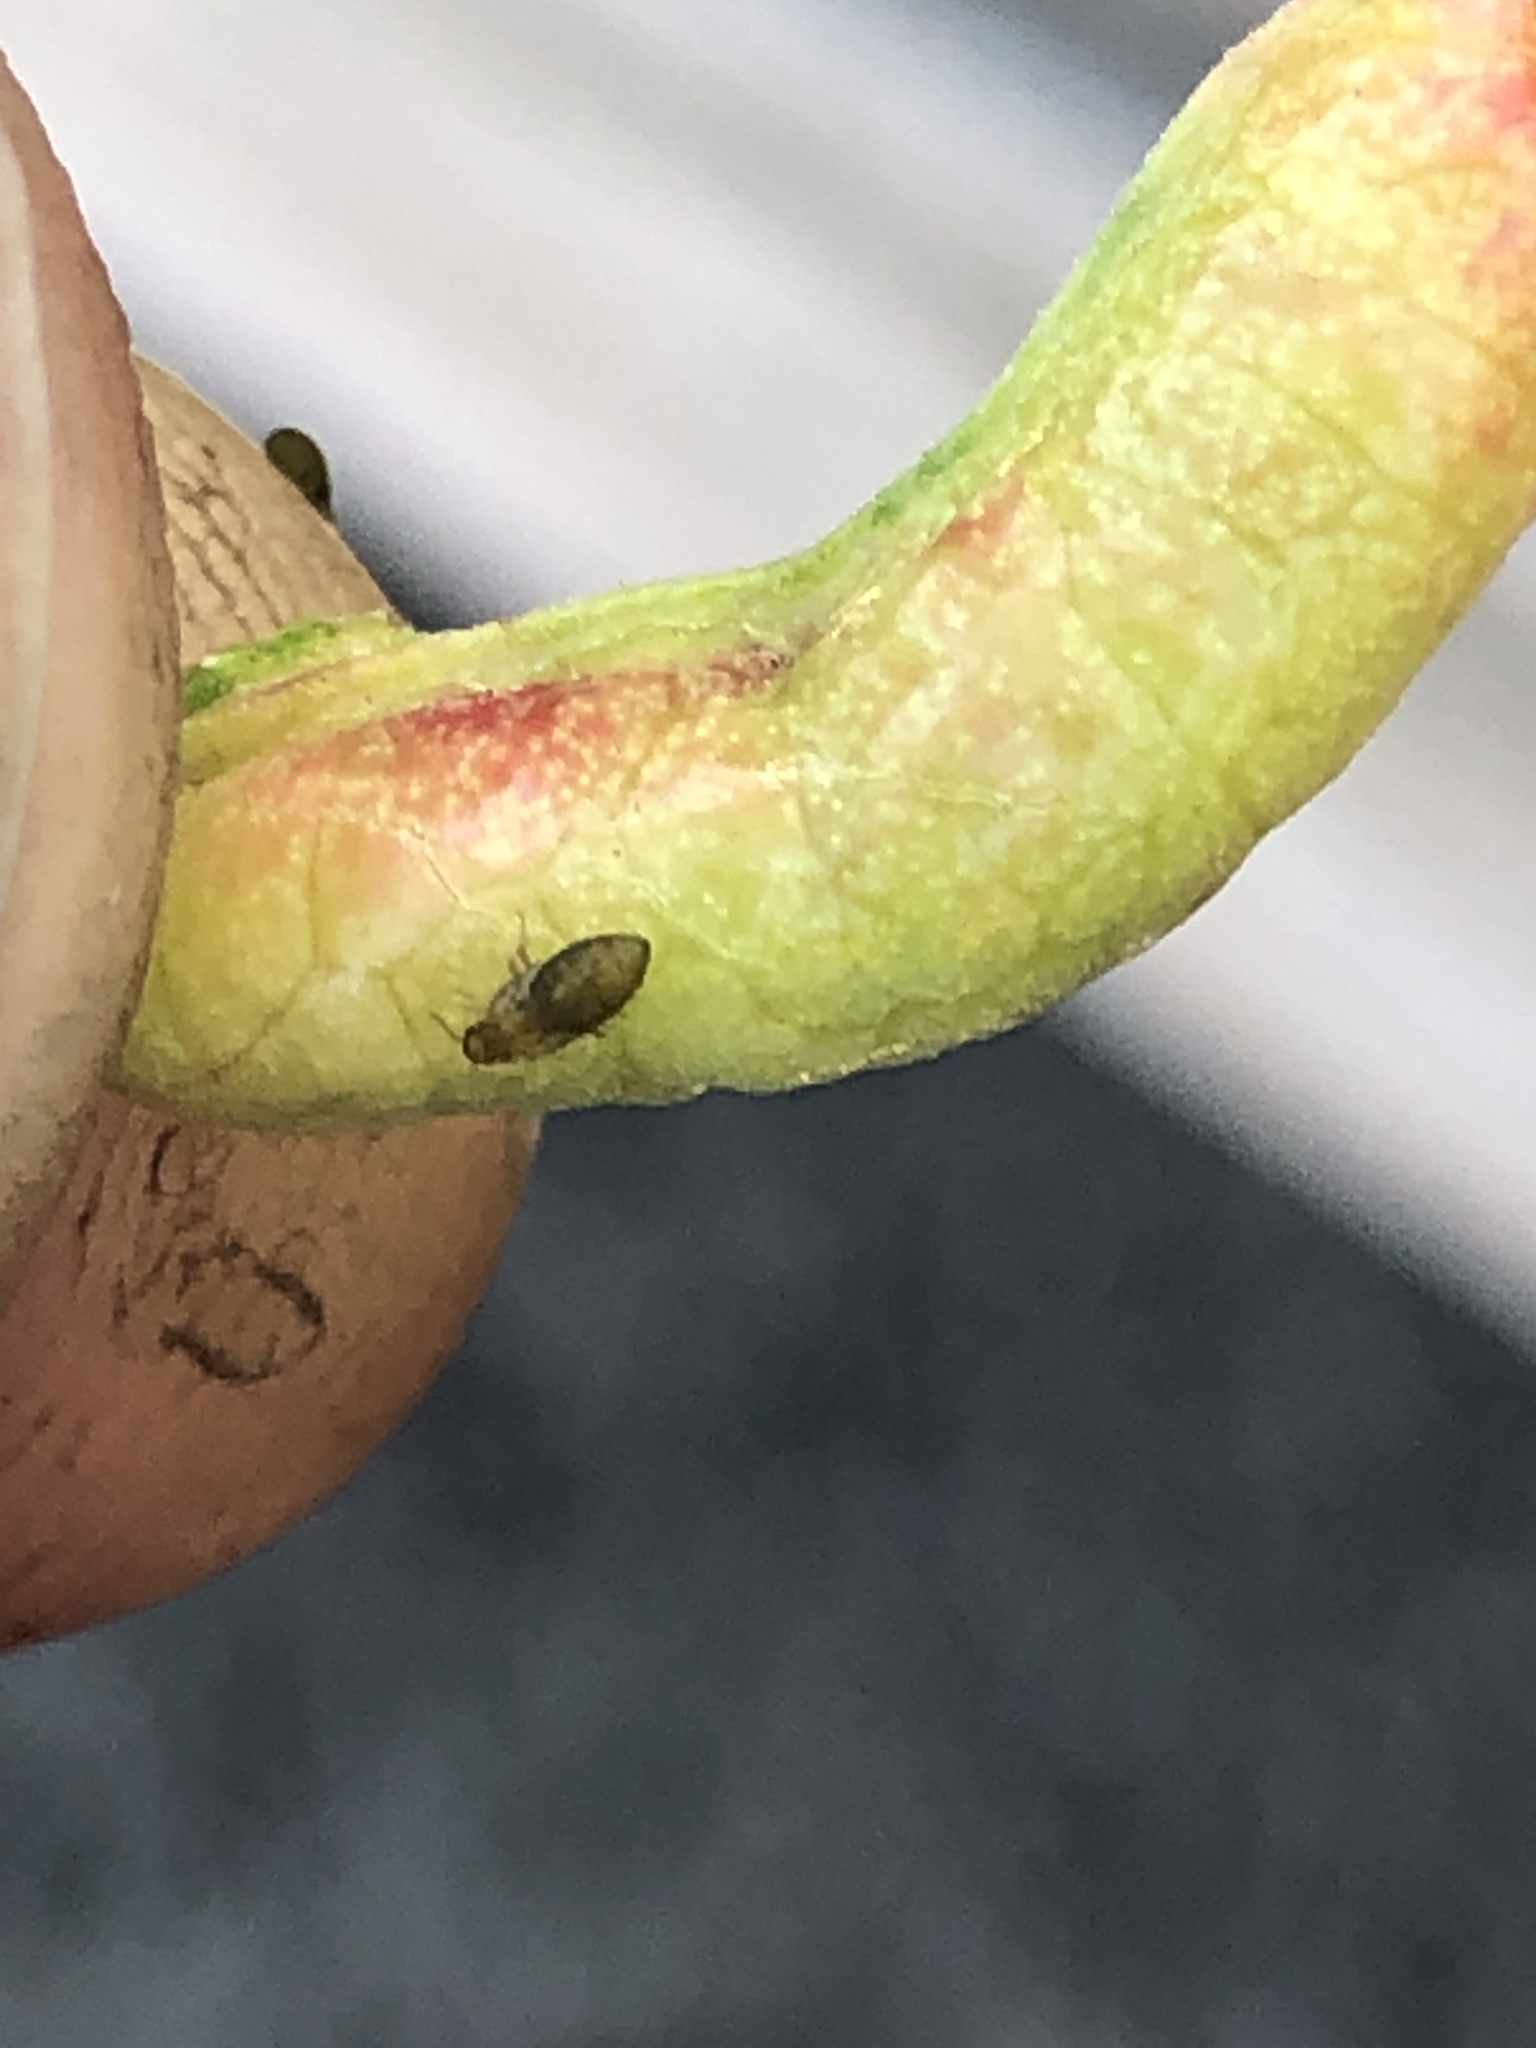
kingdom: Animalia
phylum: Arthropoda
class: Insecta
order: Hemiptera
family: Aphididae
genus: Tamalia
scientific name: Tamalia coweni
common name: Manzanita leafgall aphid
